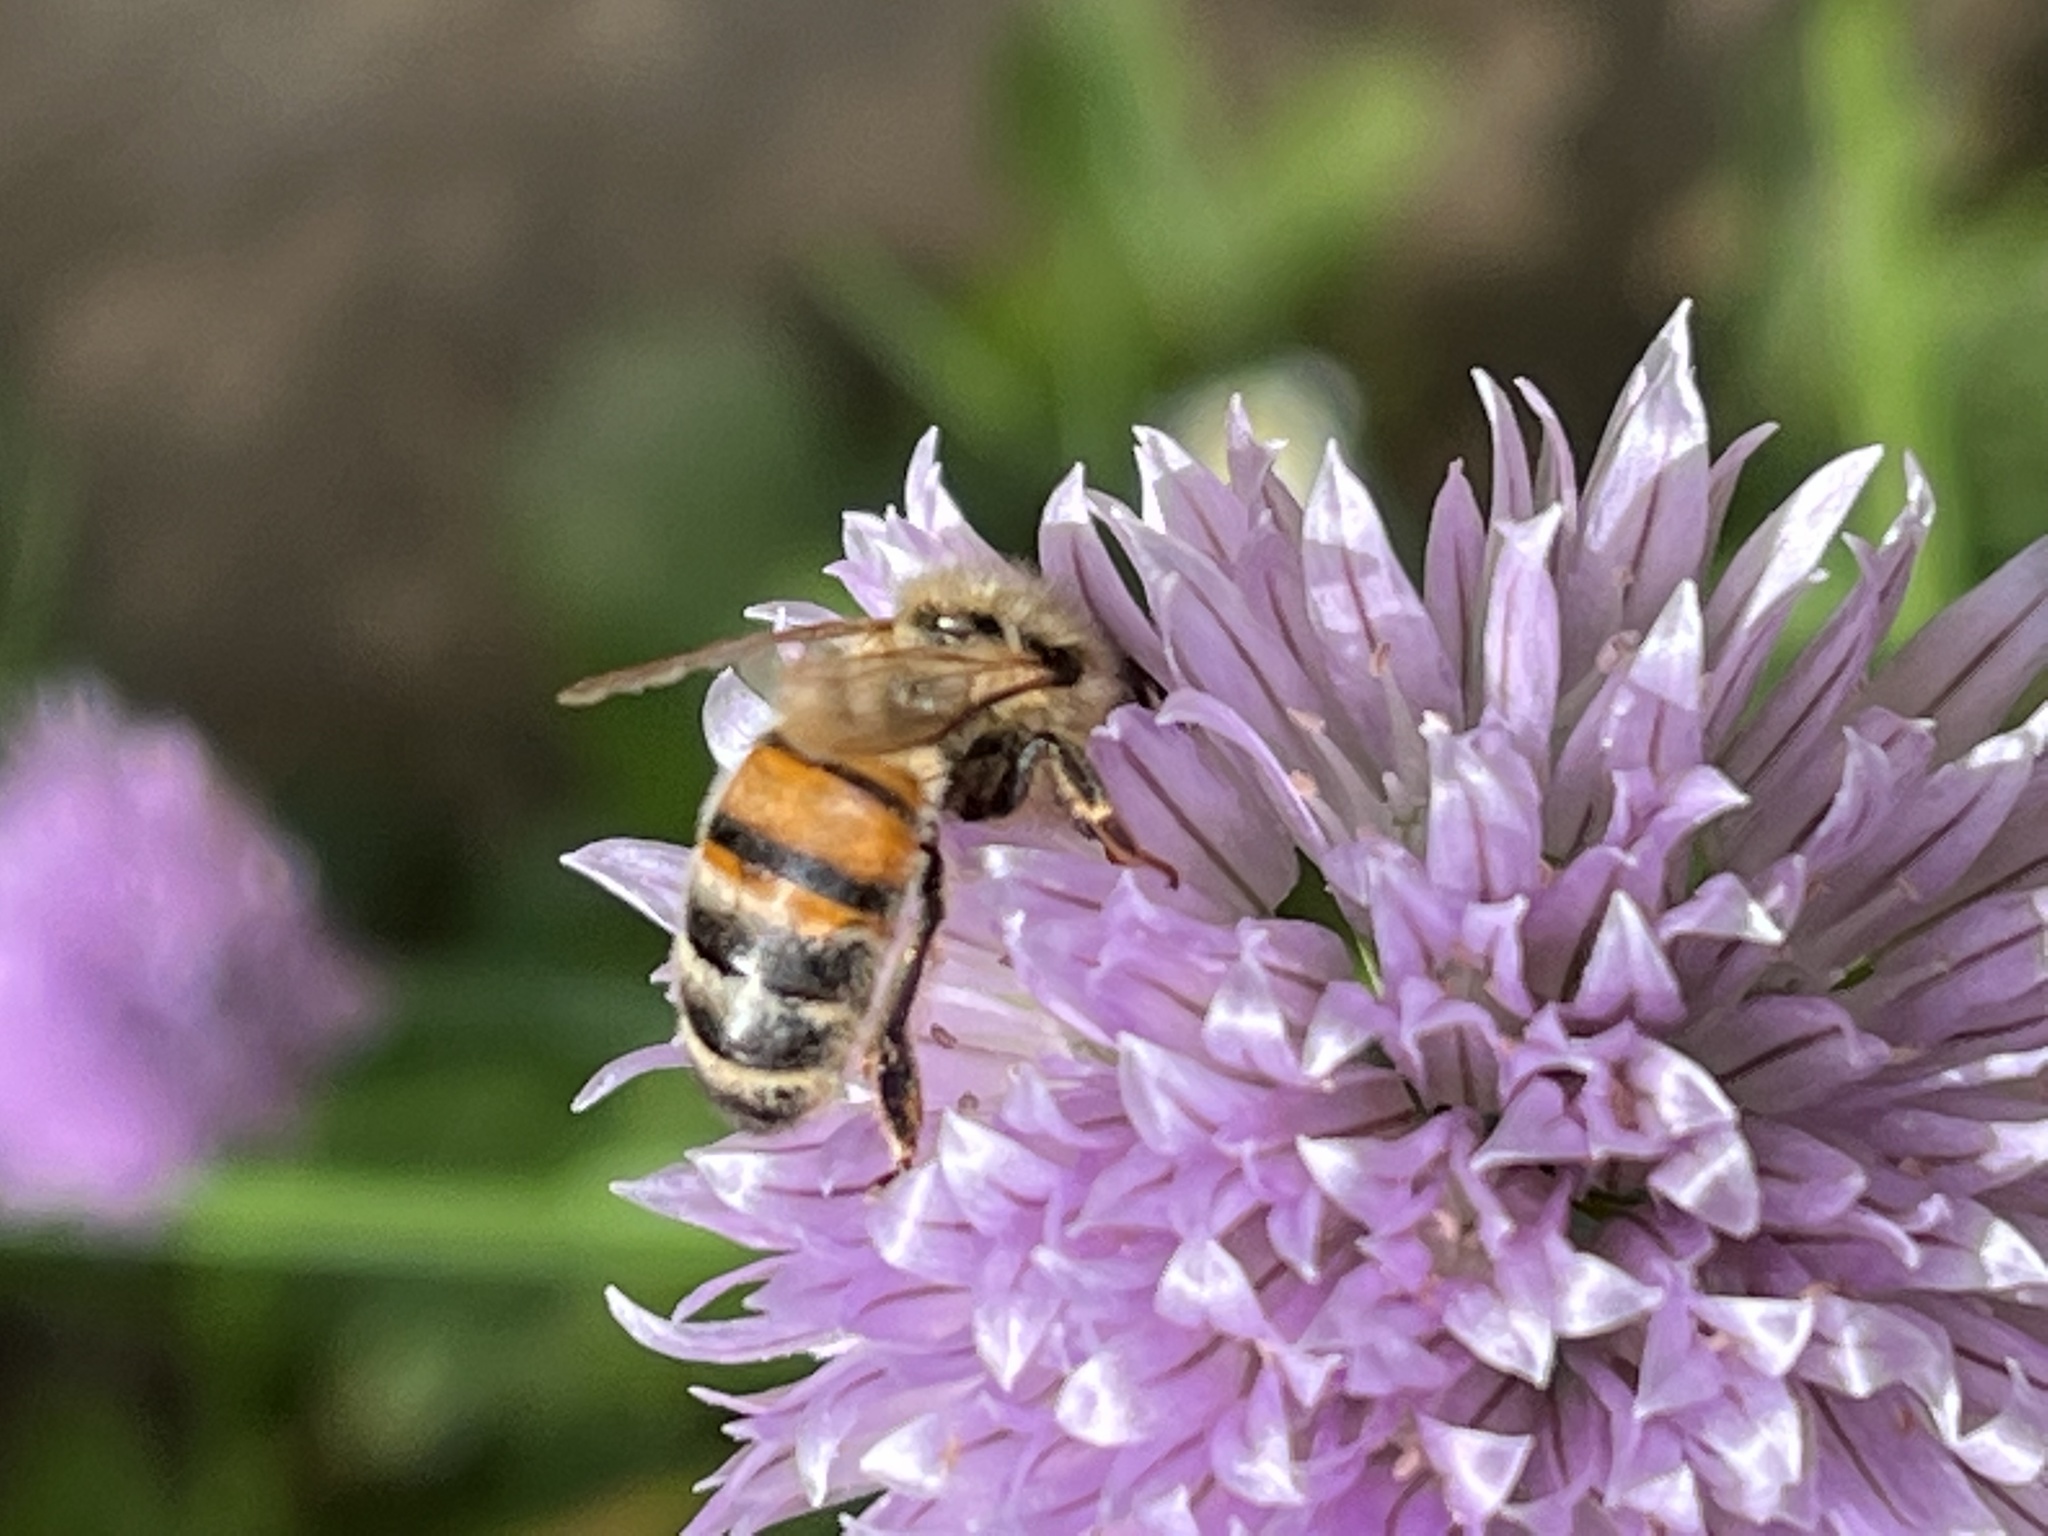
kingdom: Animalia
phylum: Arthropoda
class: Insecta
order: Hymenoptera
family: Apidae
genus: Apis
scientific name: Apis mellifera
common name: Honey bee
